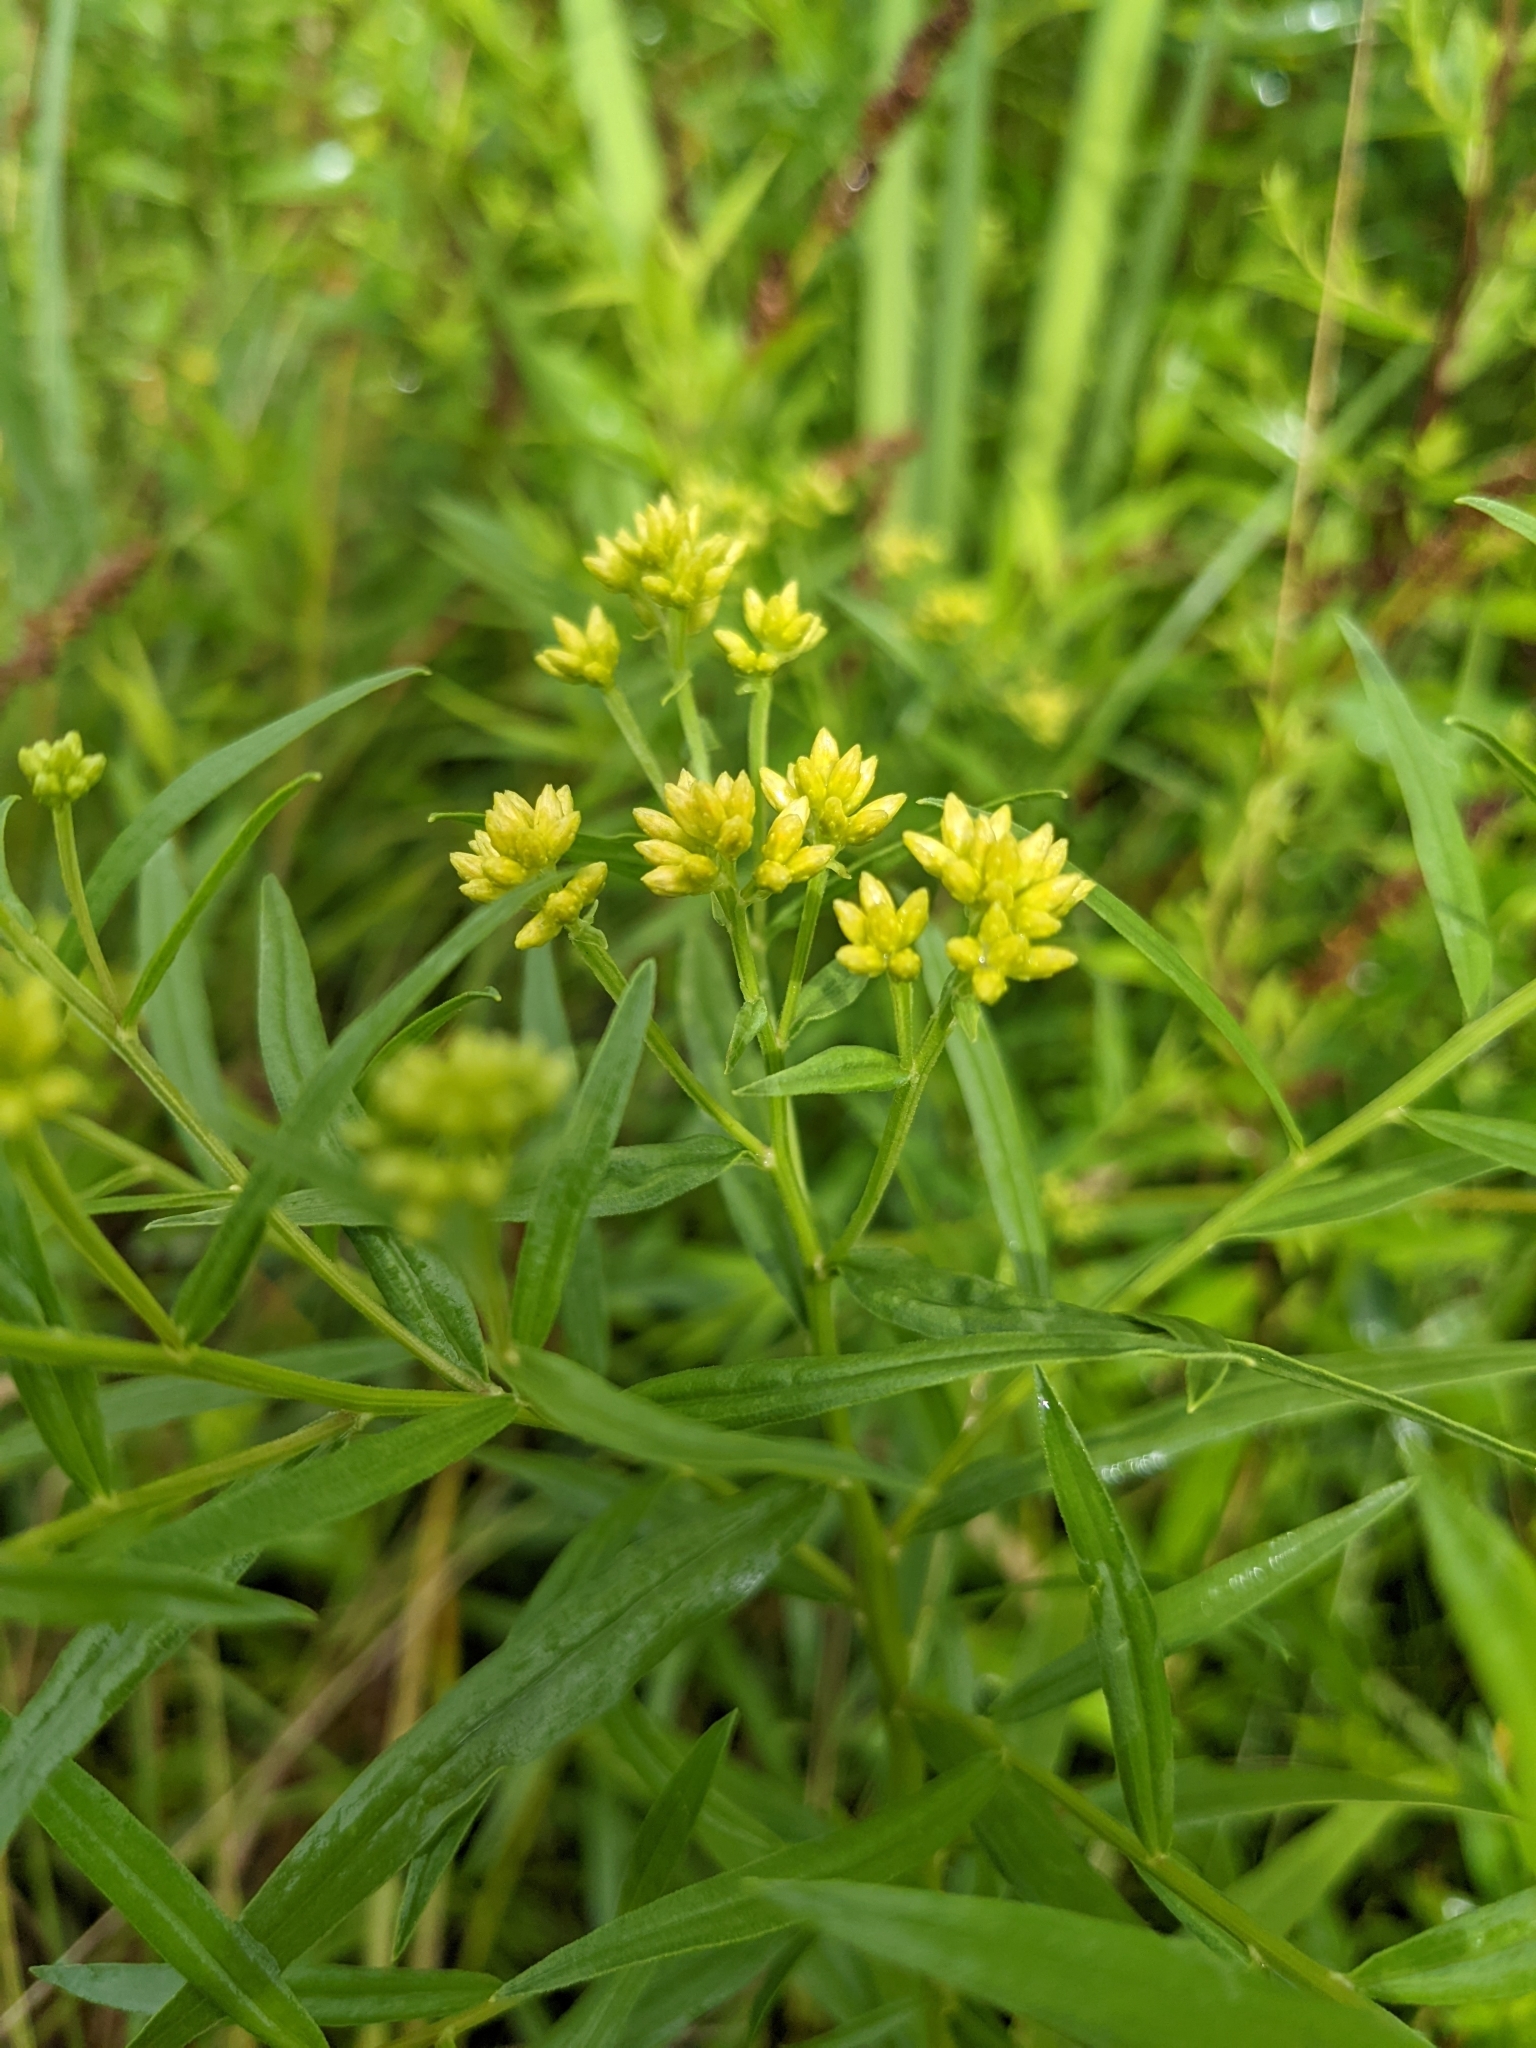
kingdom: Plantae
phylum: Tracheophyta
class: Magnoliopsida
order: Asterales
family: Asteraceae
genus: Euthamia
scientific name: Euthamia graminifolia
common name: Common goldentop
